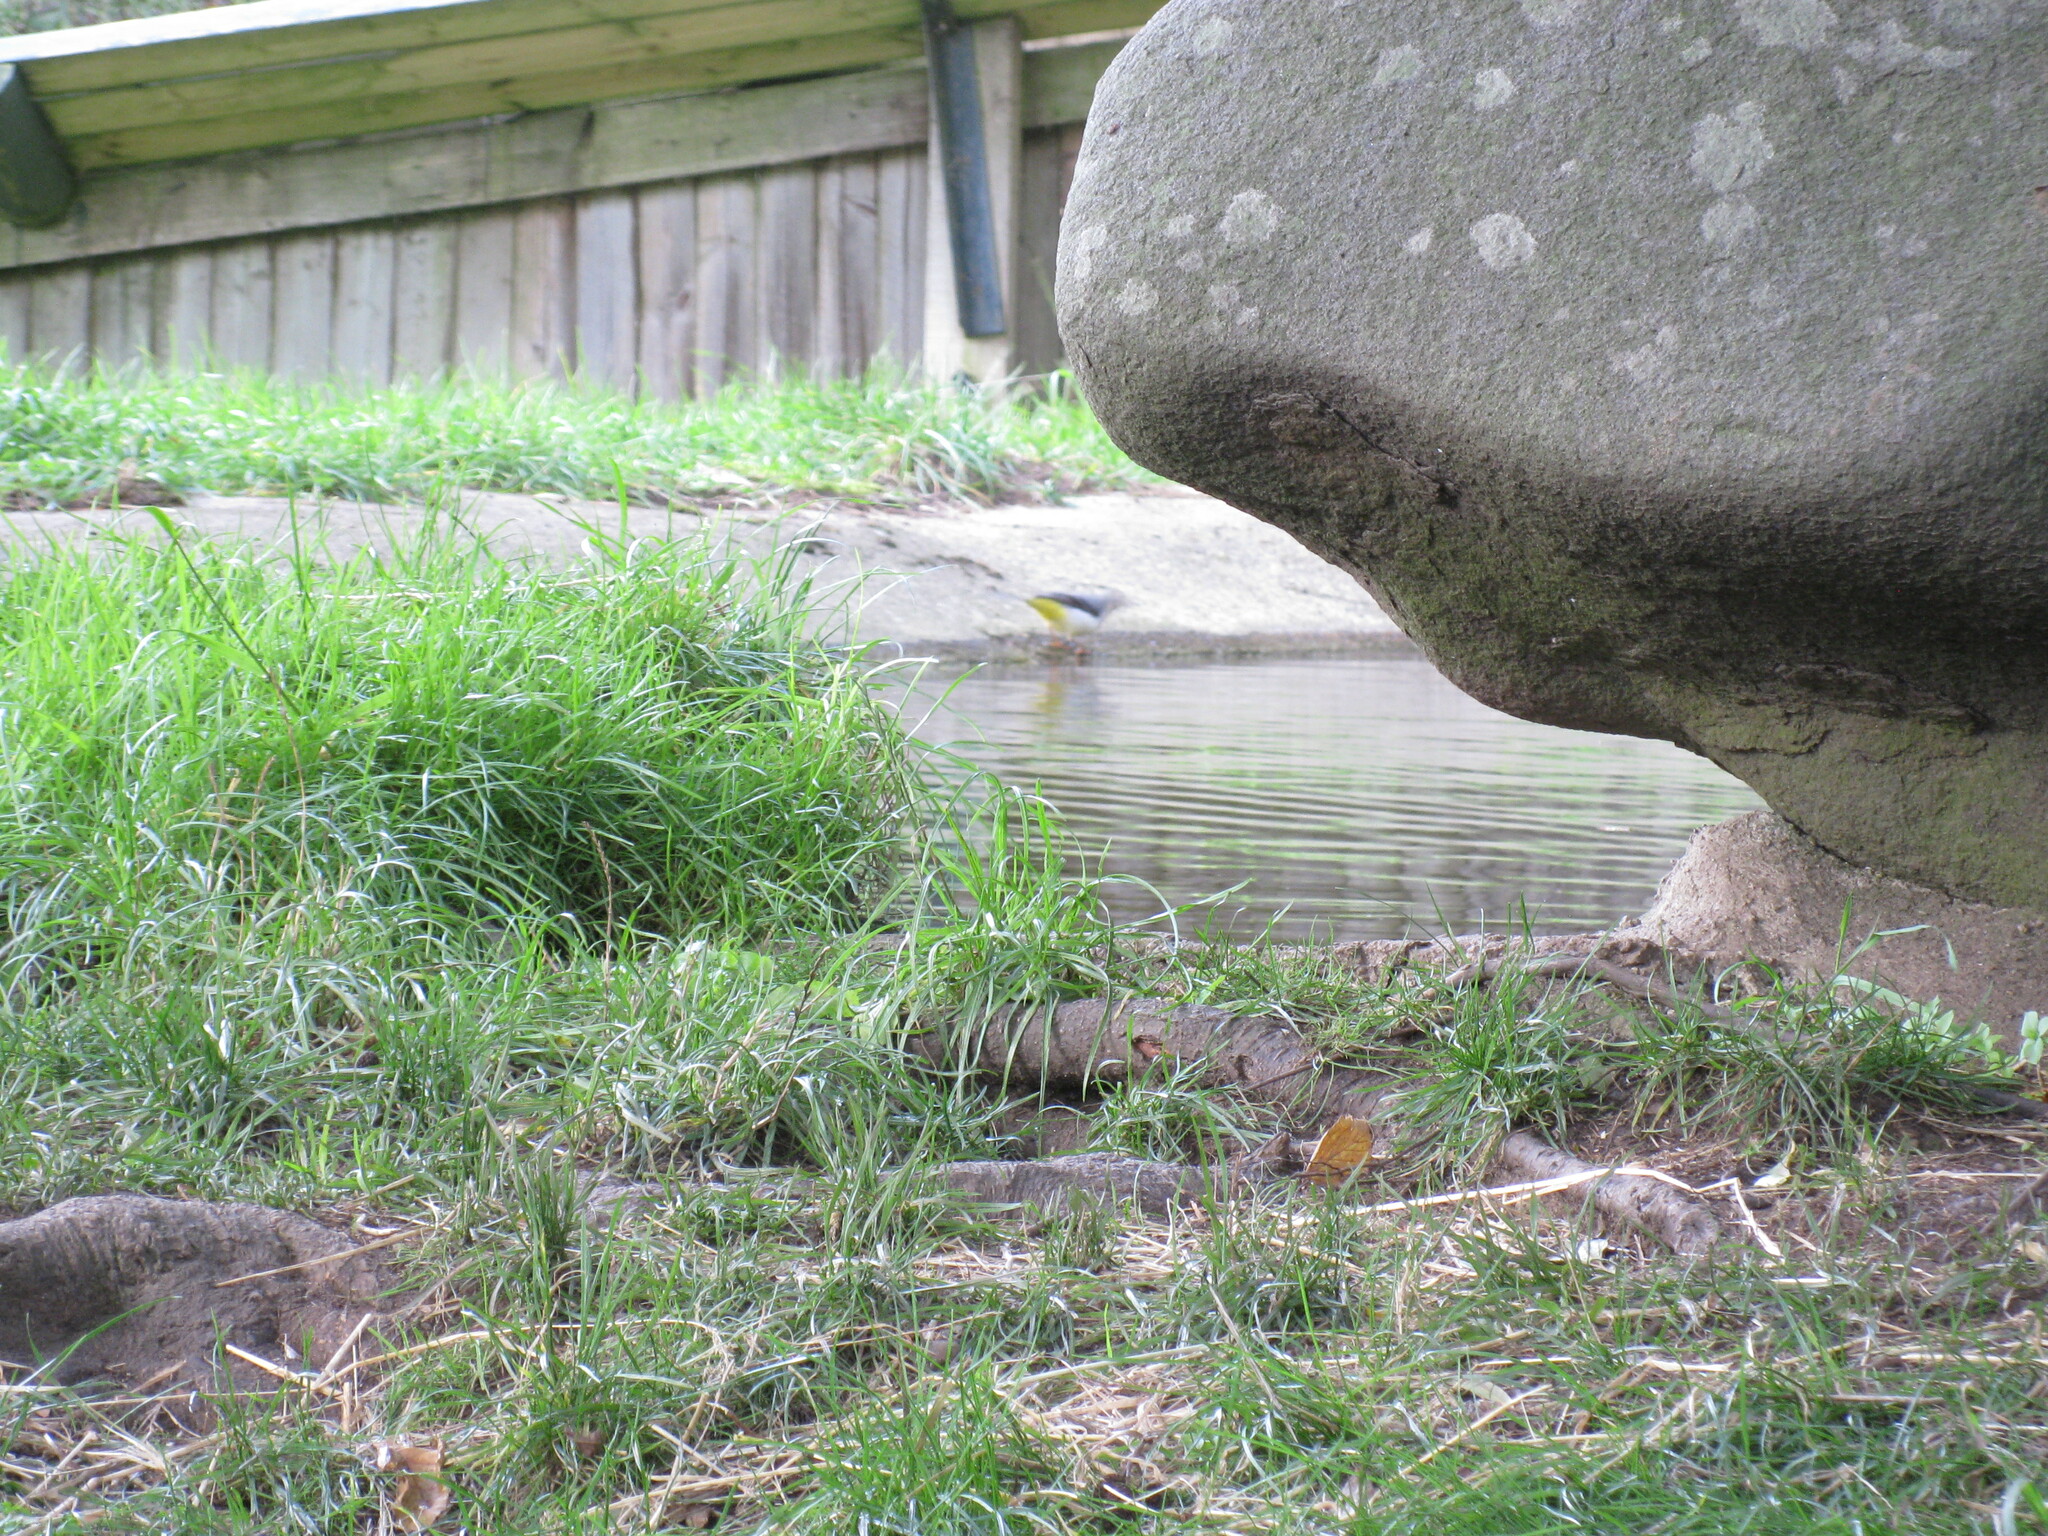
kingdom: Animalia
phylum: Chordata
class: Aves
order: Passeriformes
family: Motacillidae
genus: Motacilla
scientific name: Motacilla cinerea
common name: Grey wagtail
